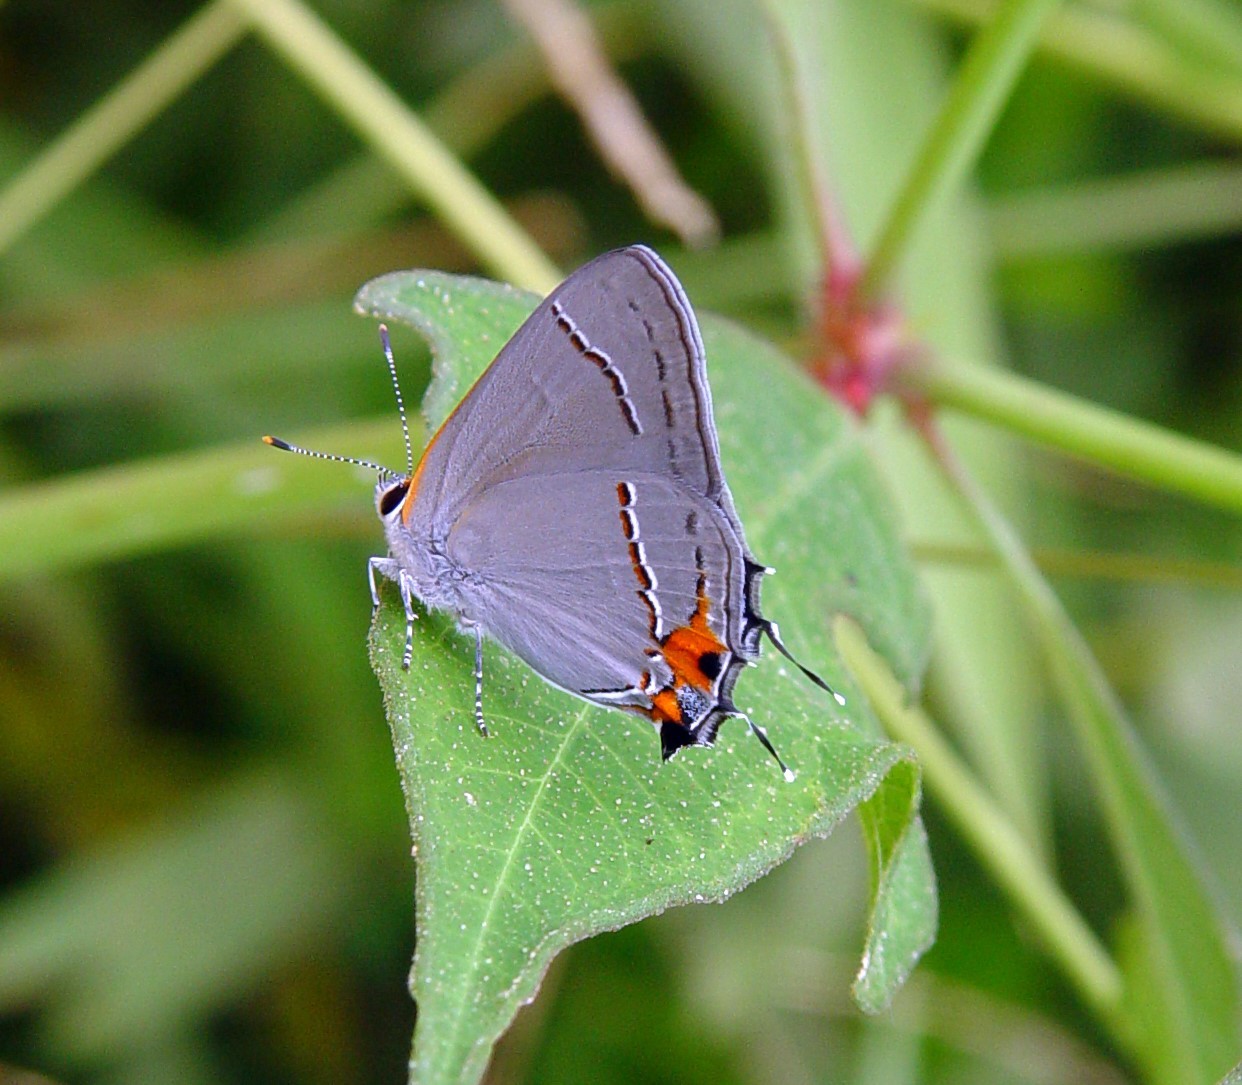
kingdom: Animalia
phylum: Arthropoda
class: Insecta
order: Lepidoptera
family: Lycaenidae
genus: Strymon
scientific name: Strymon melinus
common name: Gray hairstreak
